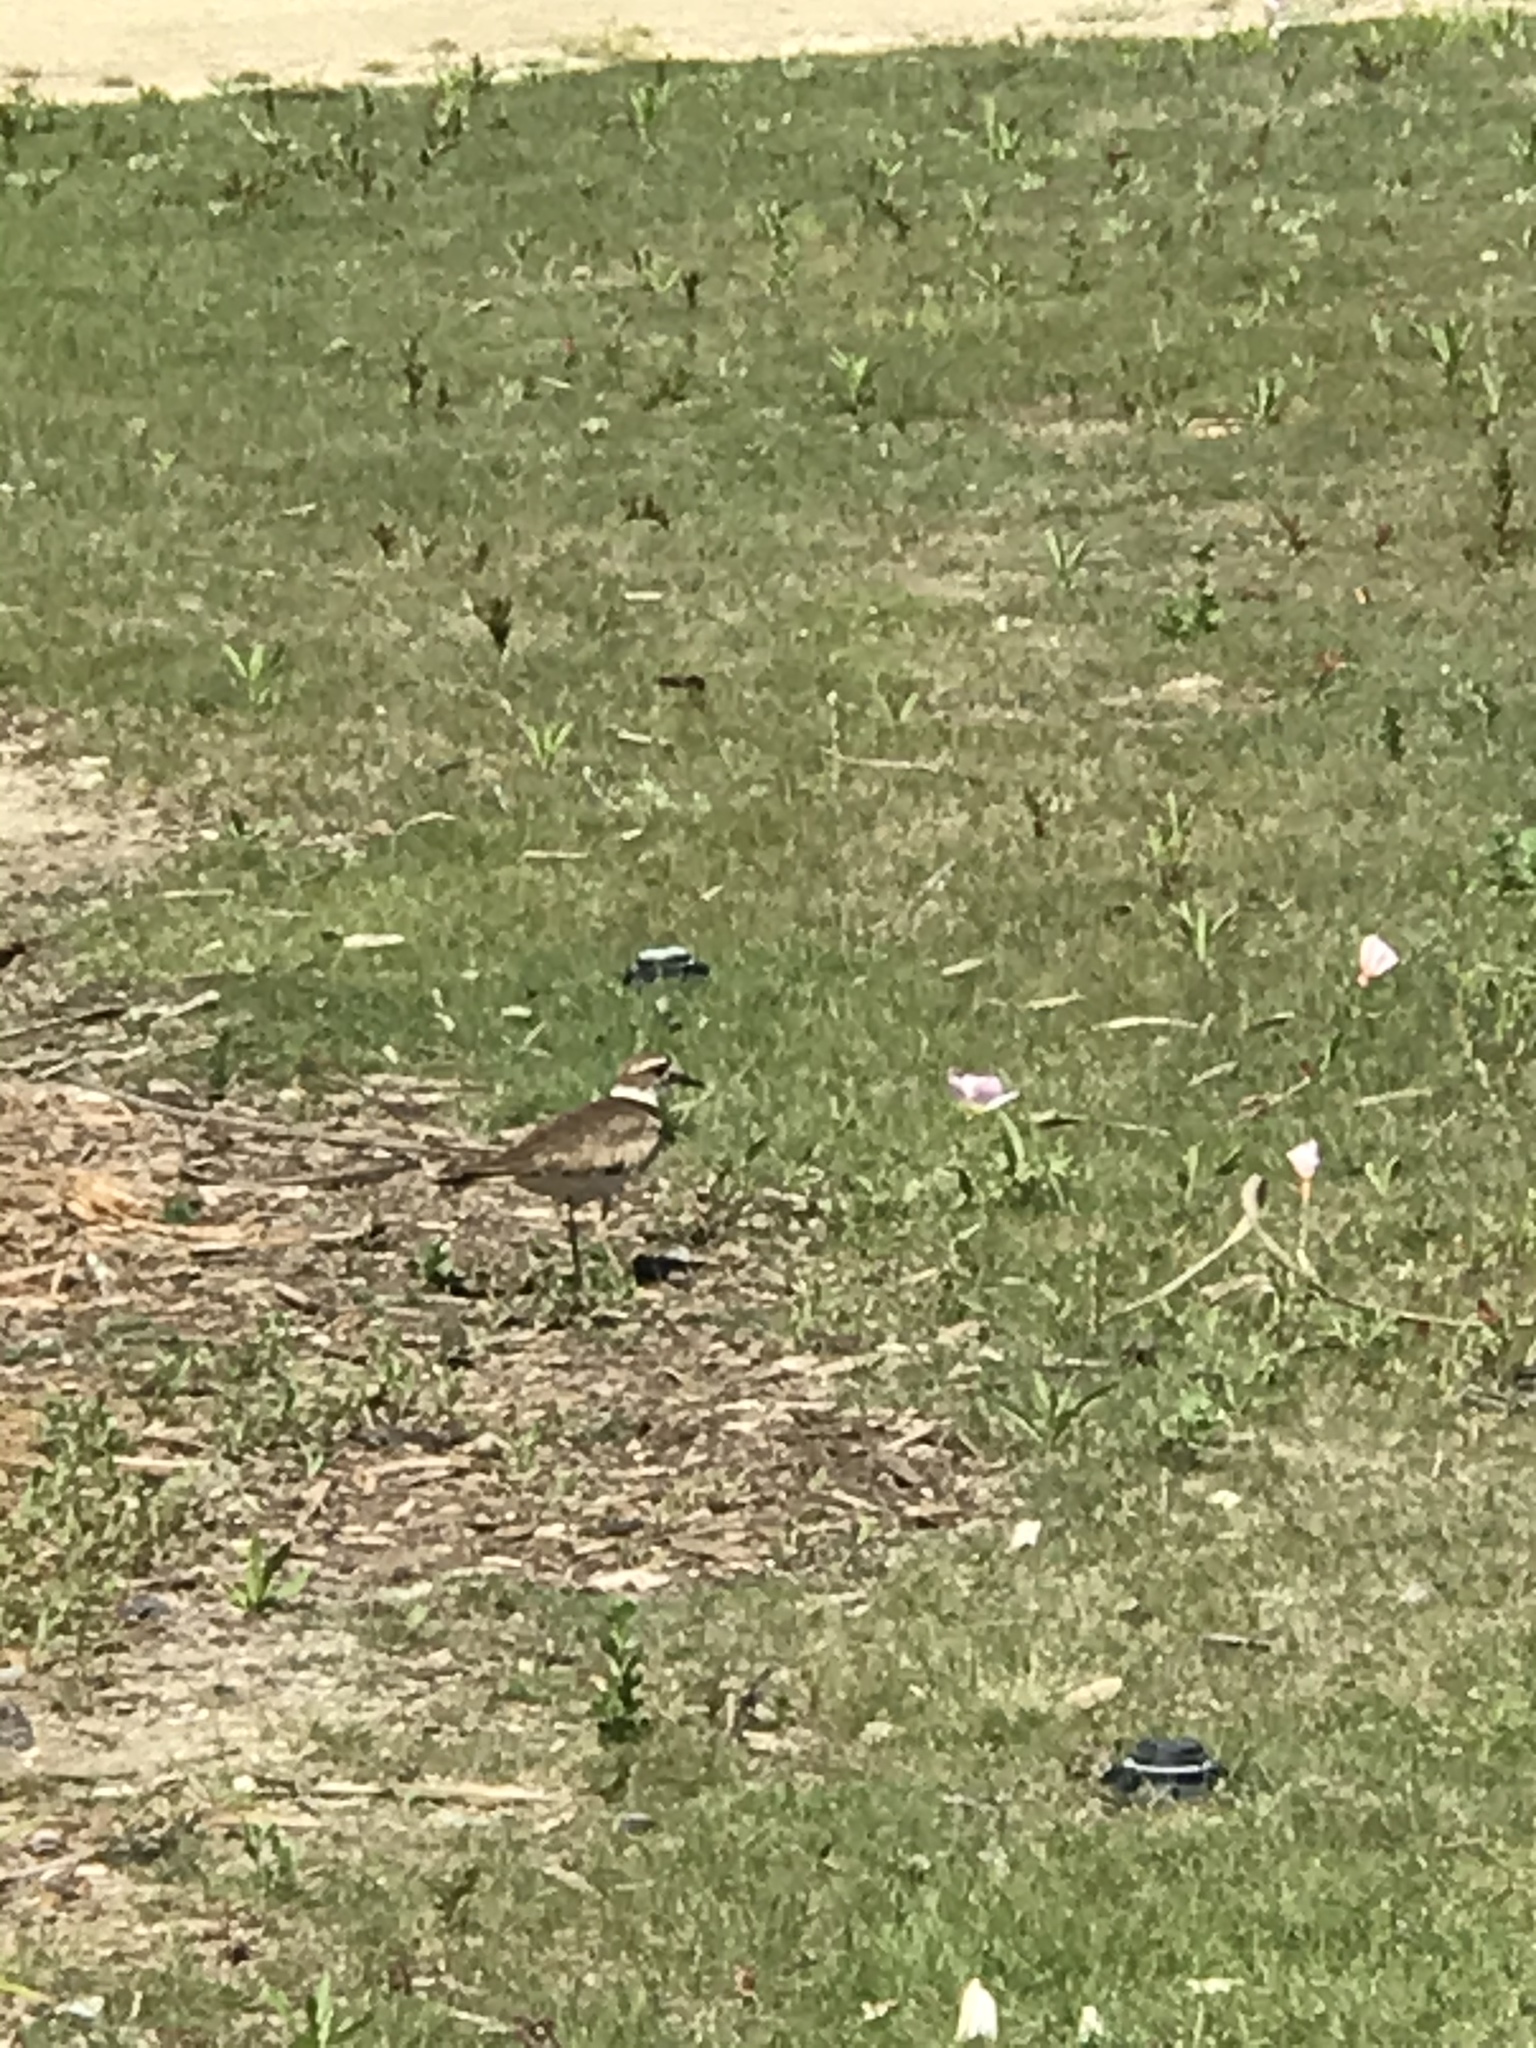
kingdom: Animalia
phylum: Chordata
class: Aves
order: Charadriiformes
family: Charadriidae
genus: Charadrius
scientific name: Charadrius vociferus
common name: Killdeer
